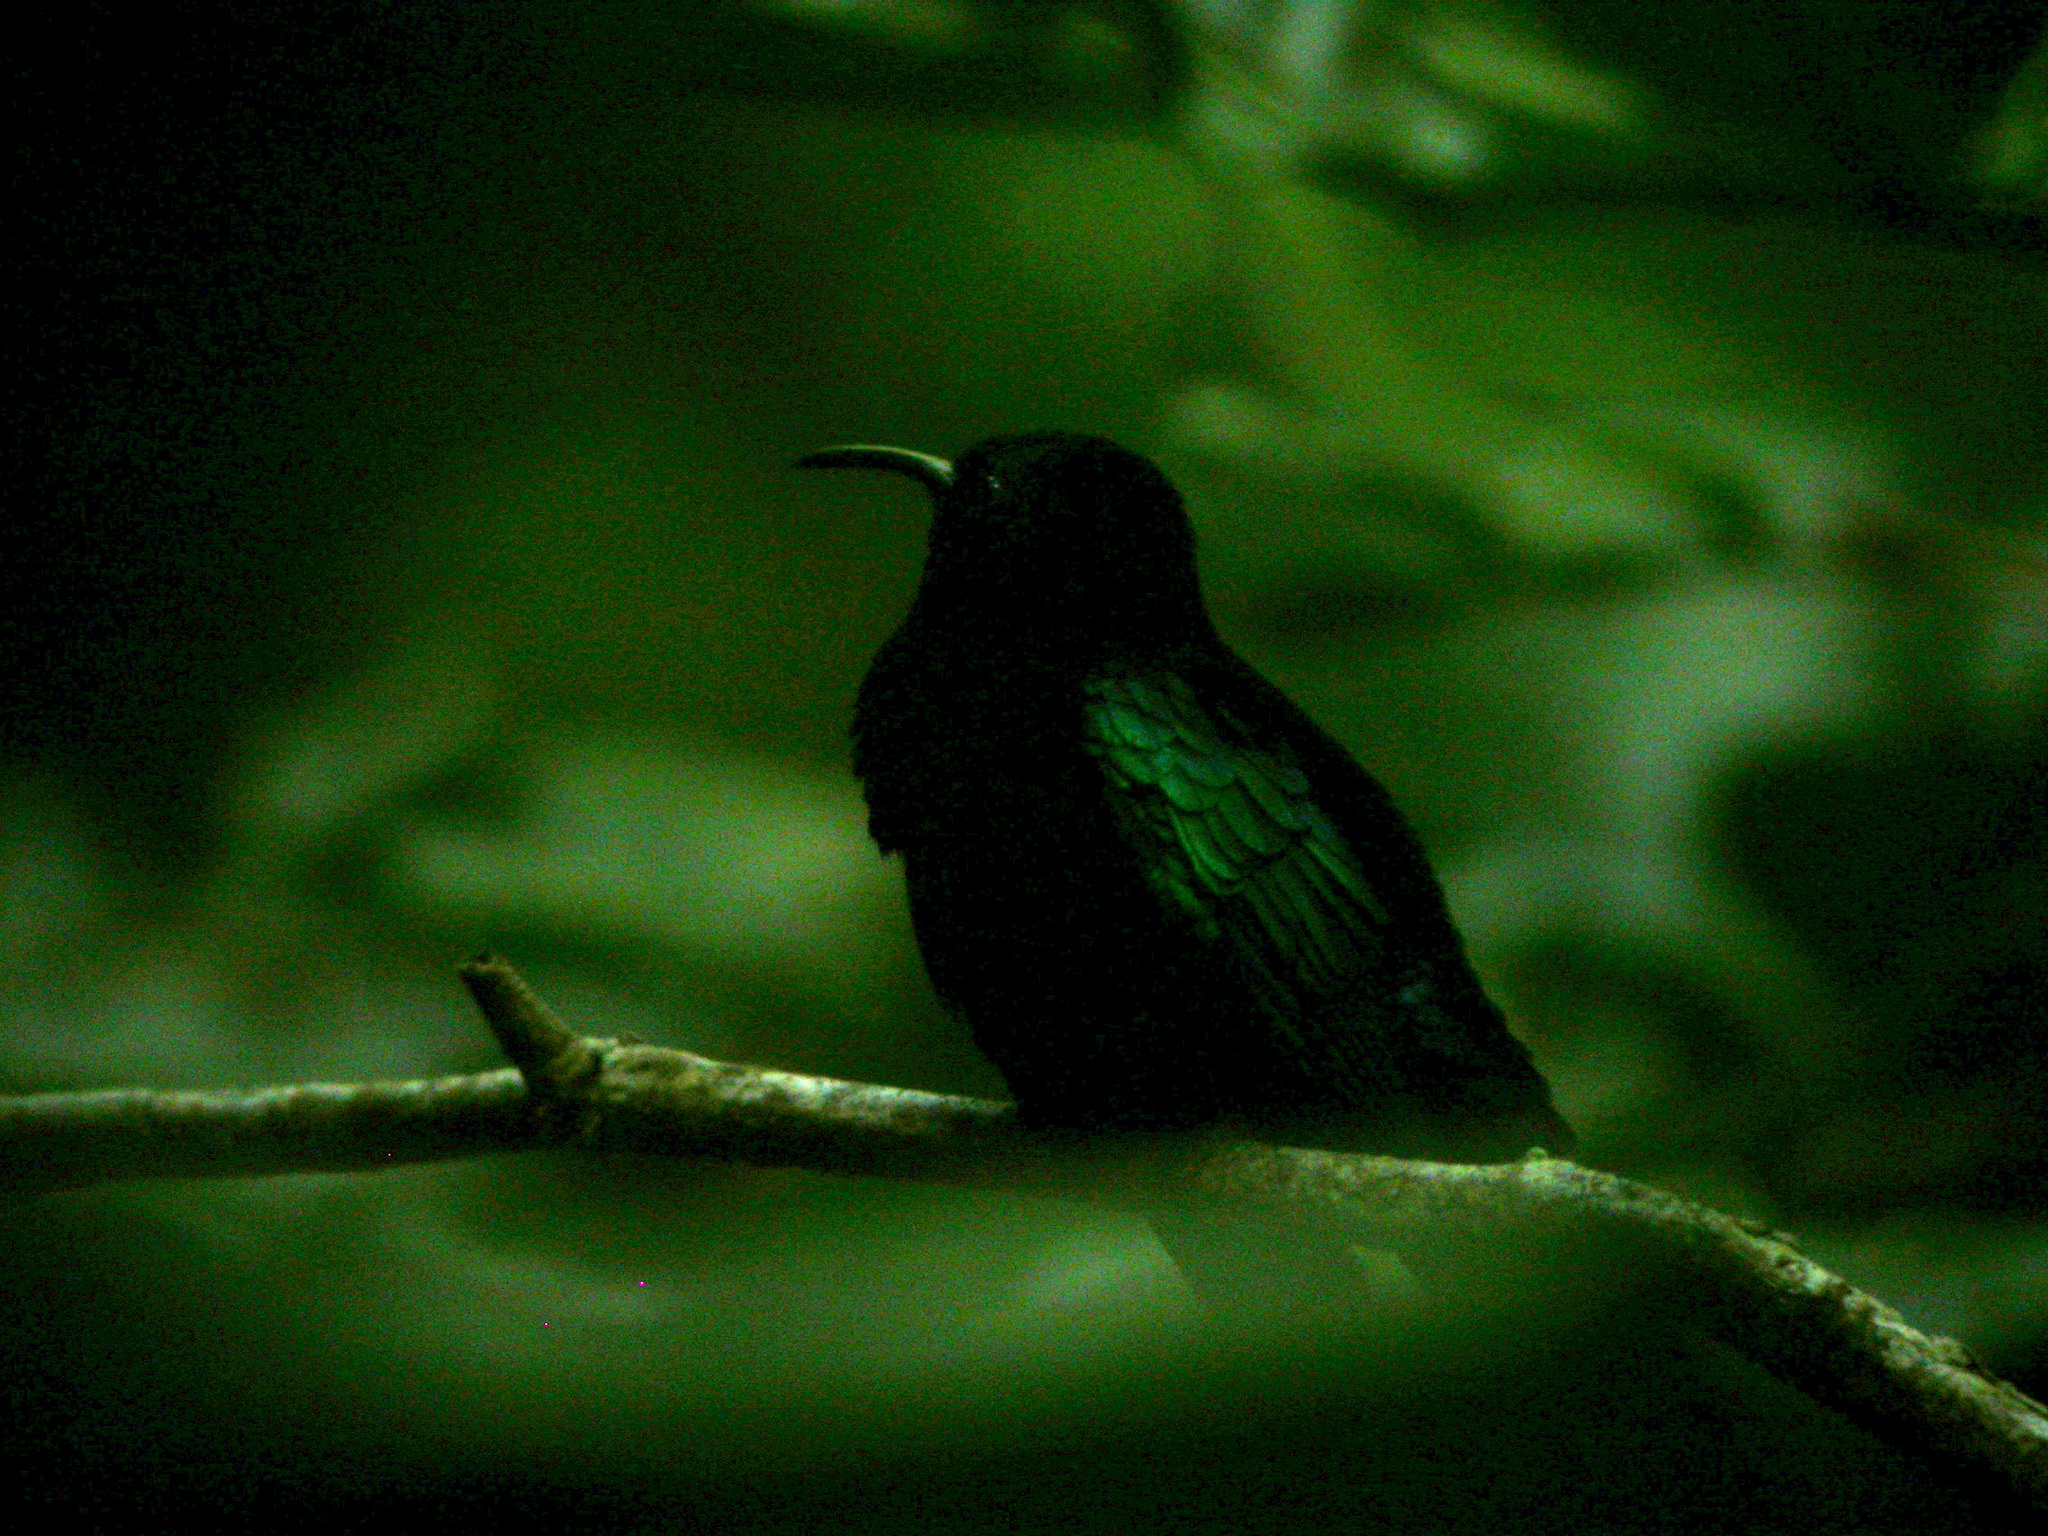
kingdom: Animalia
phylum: Chordata
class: Aves
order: Apodiformes
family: Trochilidae
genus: Eulampis
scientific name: Eulampis jugularis
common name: Purple-throated carib
